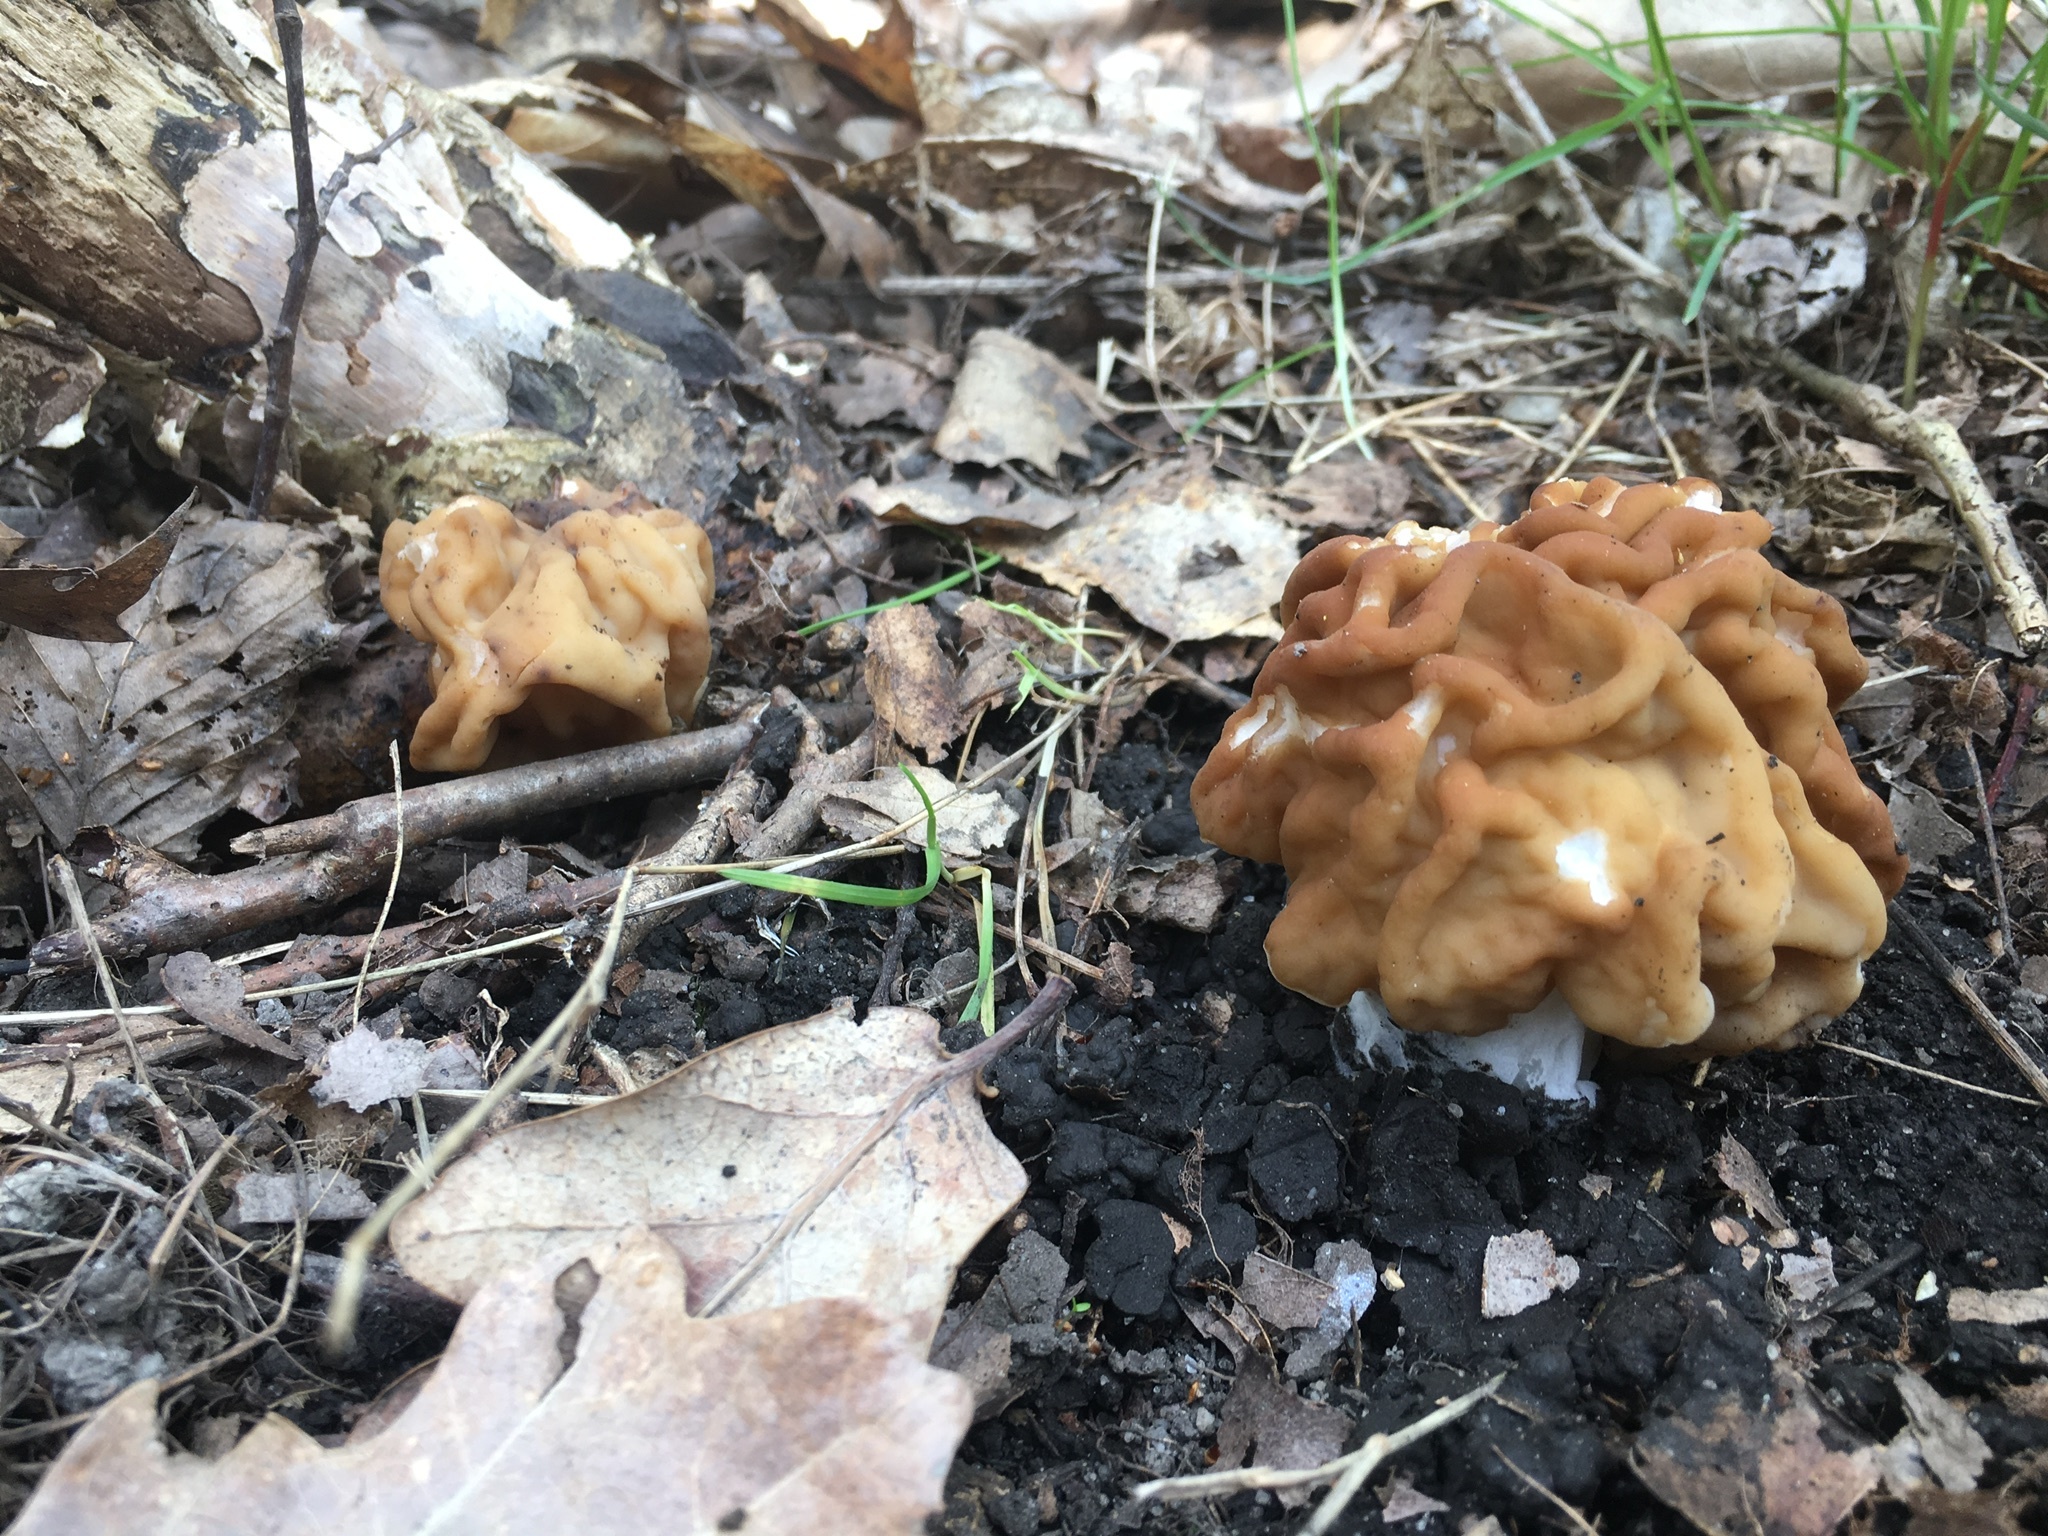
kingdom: Fungi
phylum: Ascomycota
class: Pezizomycetes
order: Pezizales
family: Discinaceae
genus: Gyromitra
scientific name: Gyromitra gigas
